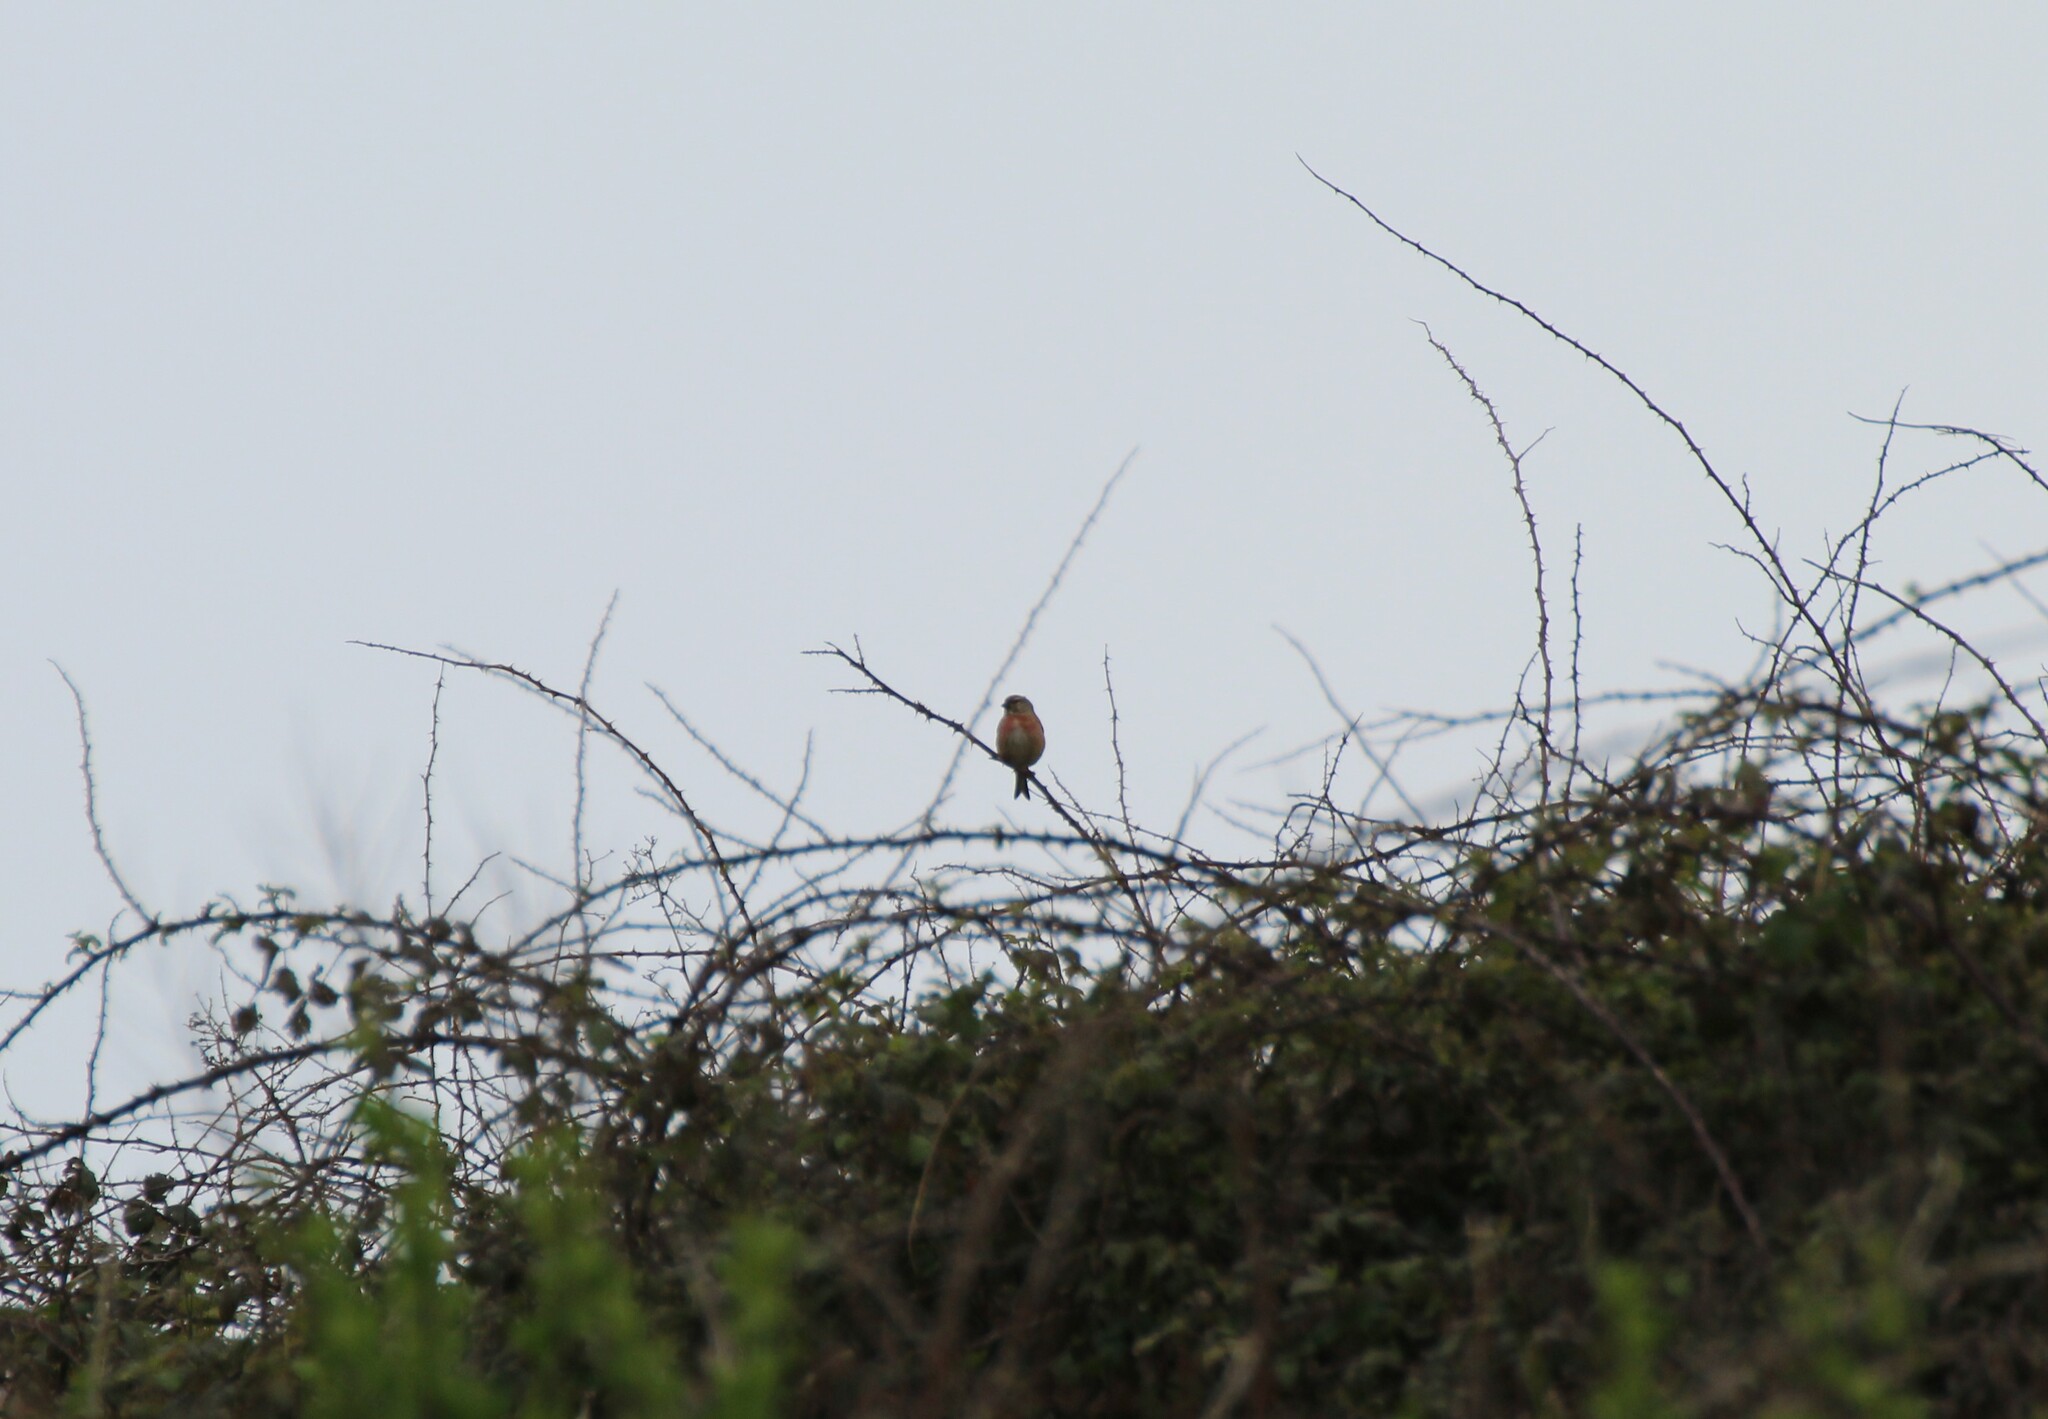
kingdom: Animalia
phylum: Chordata
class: Aves
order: Passeriformes
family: Fringillidae
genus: Linaria
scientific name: Linaria cannabina
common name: Common linnet
